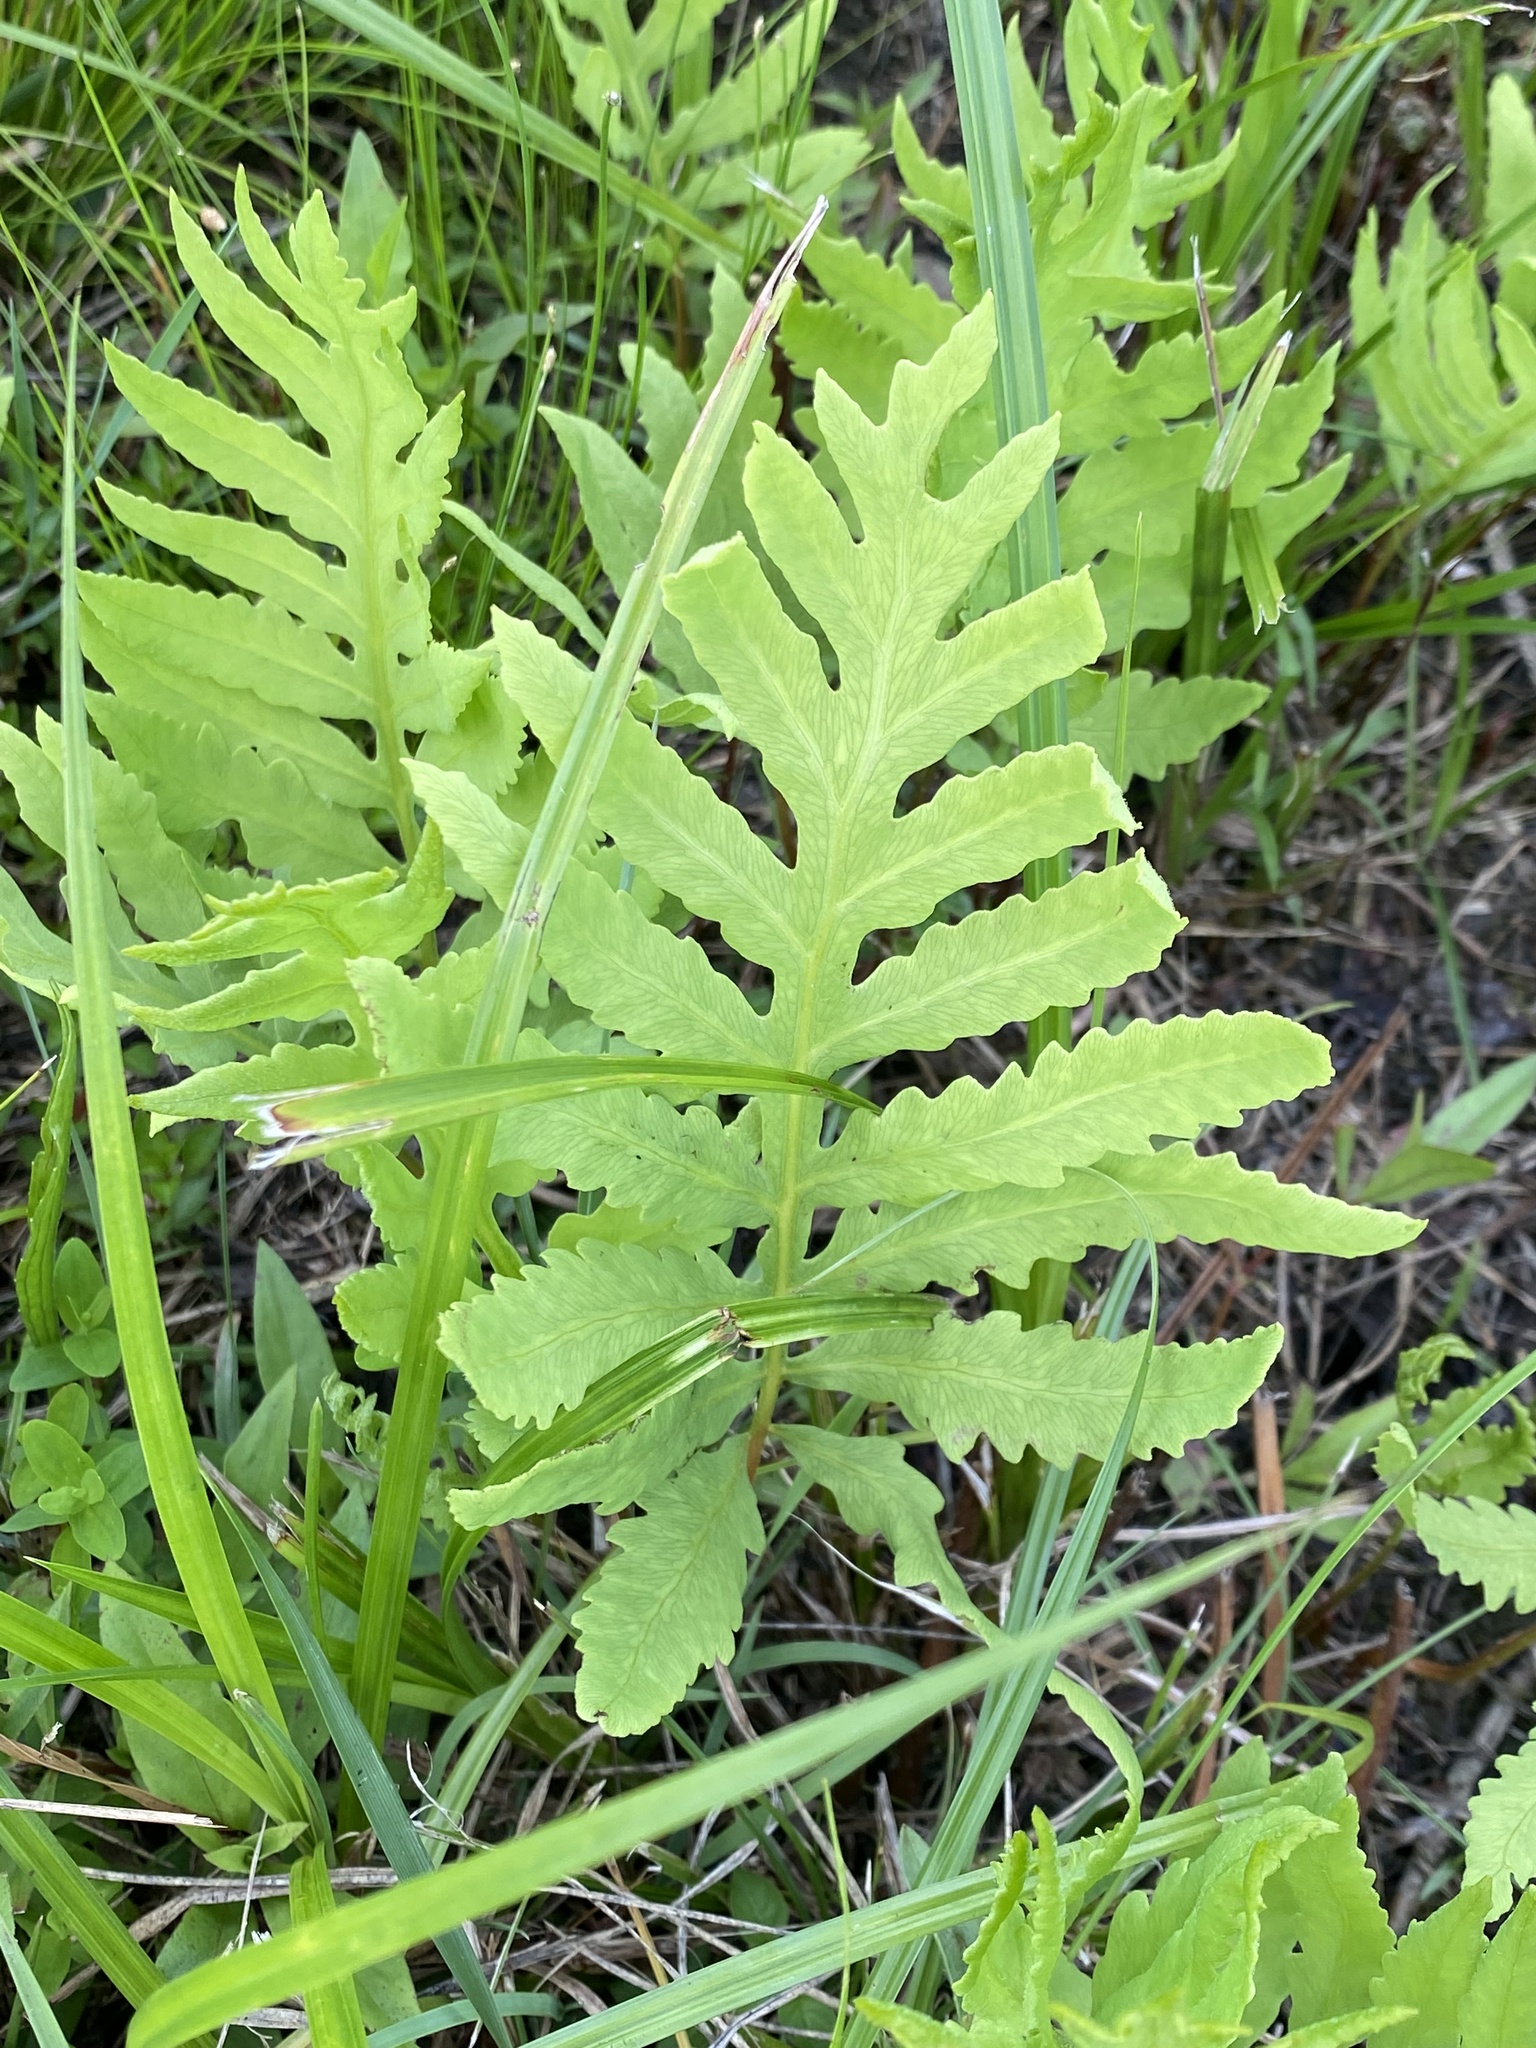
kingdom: Plantae
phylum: Tracheophyta
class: Polypodiopsida
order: Polypodiales
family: Onocleaceae
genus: Onoclea
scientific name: Onoclea sensibilis
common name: Sensitive fern
